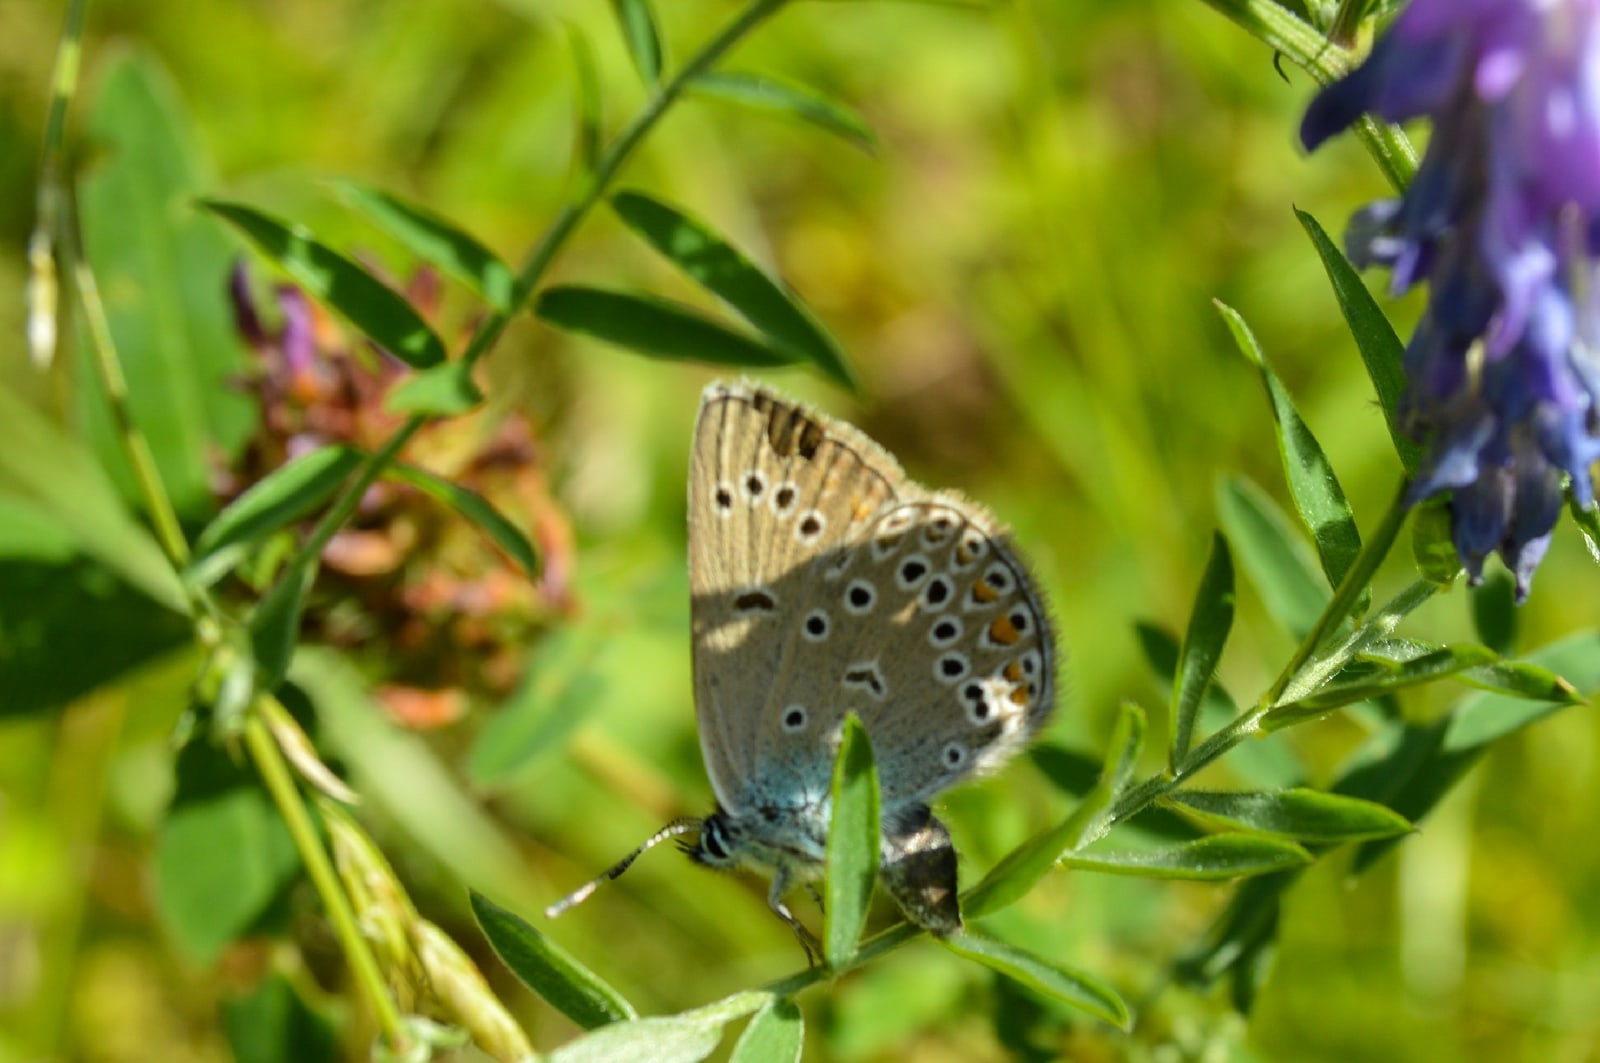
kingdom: Animalia
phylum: Arthropoda
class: Insecta
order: Lepidoptera
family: Lycaenidae
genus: Plebejus
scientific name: Plebejus amanda
